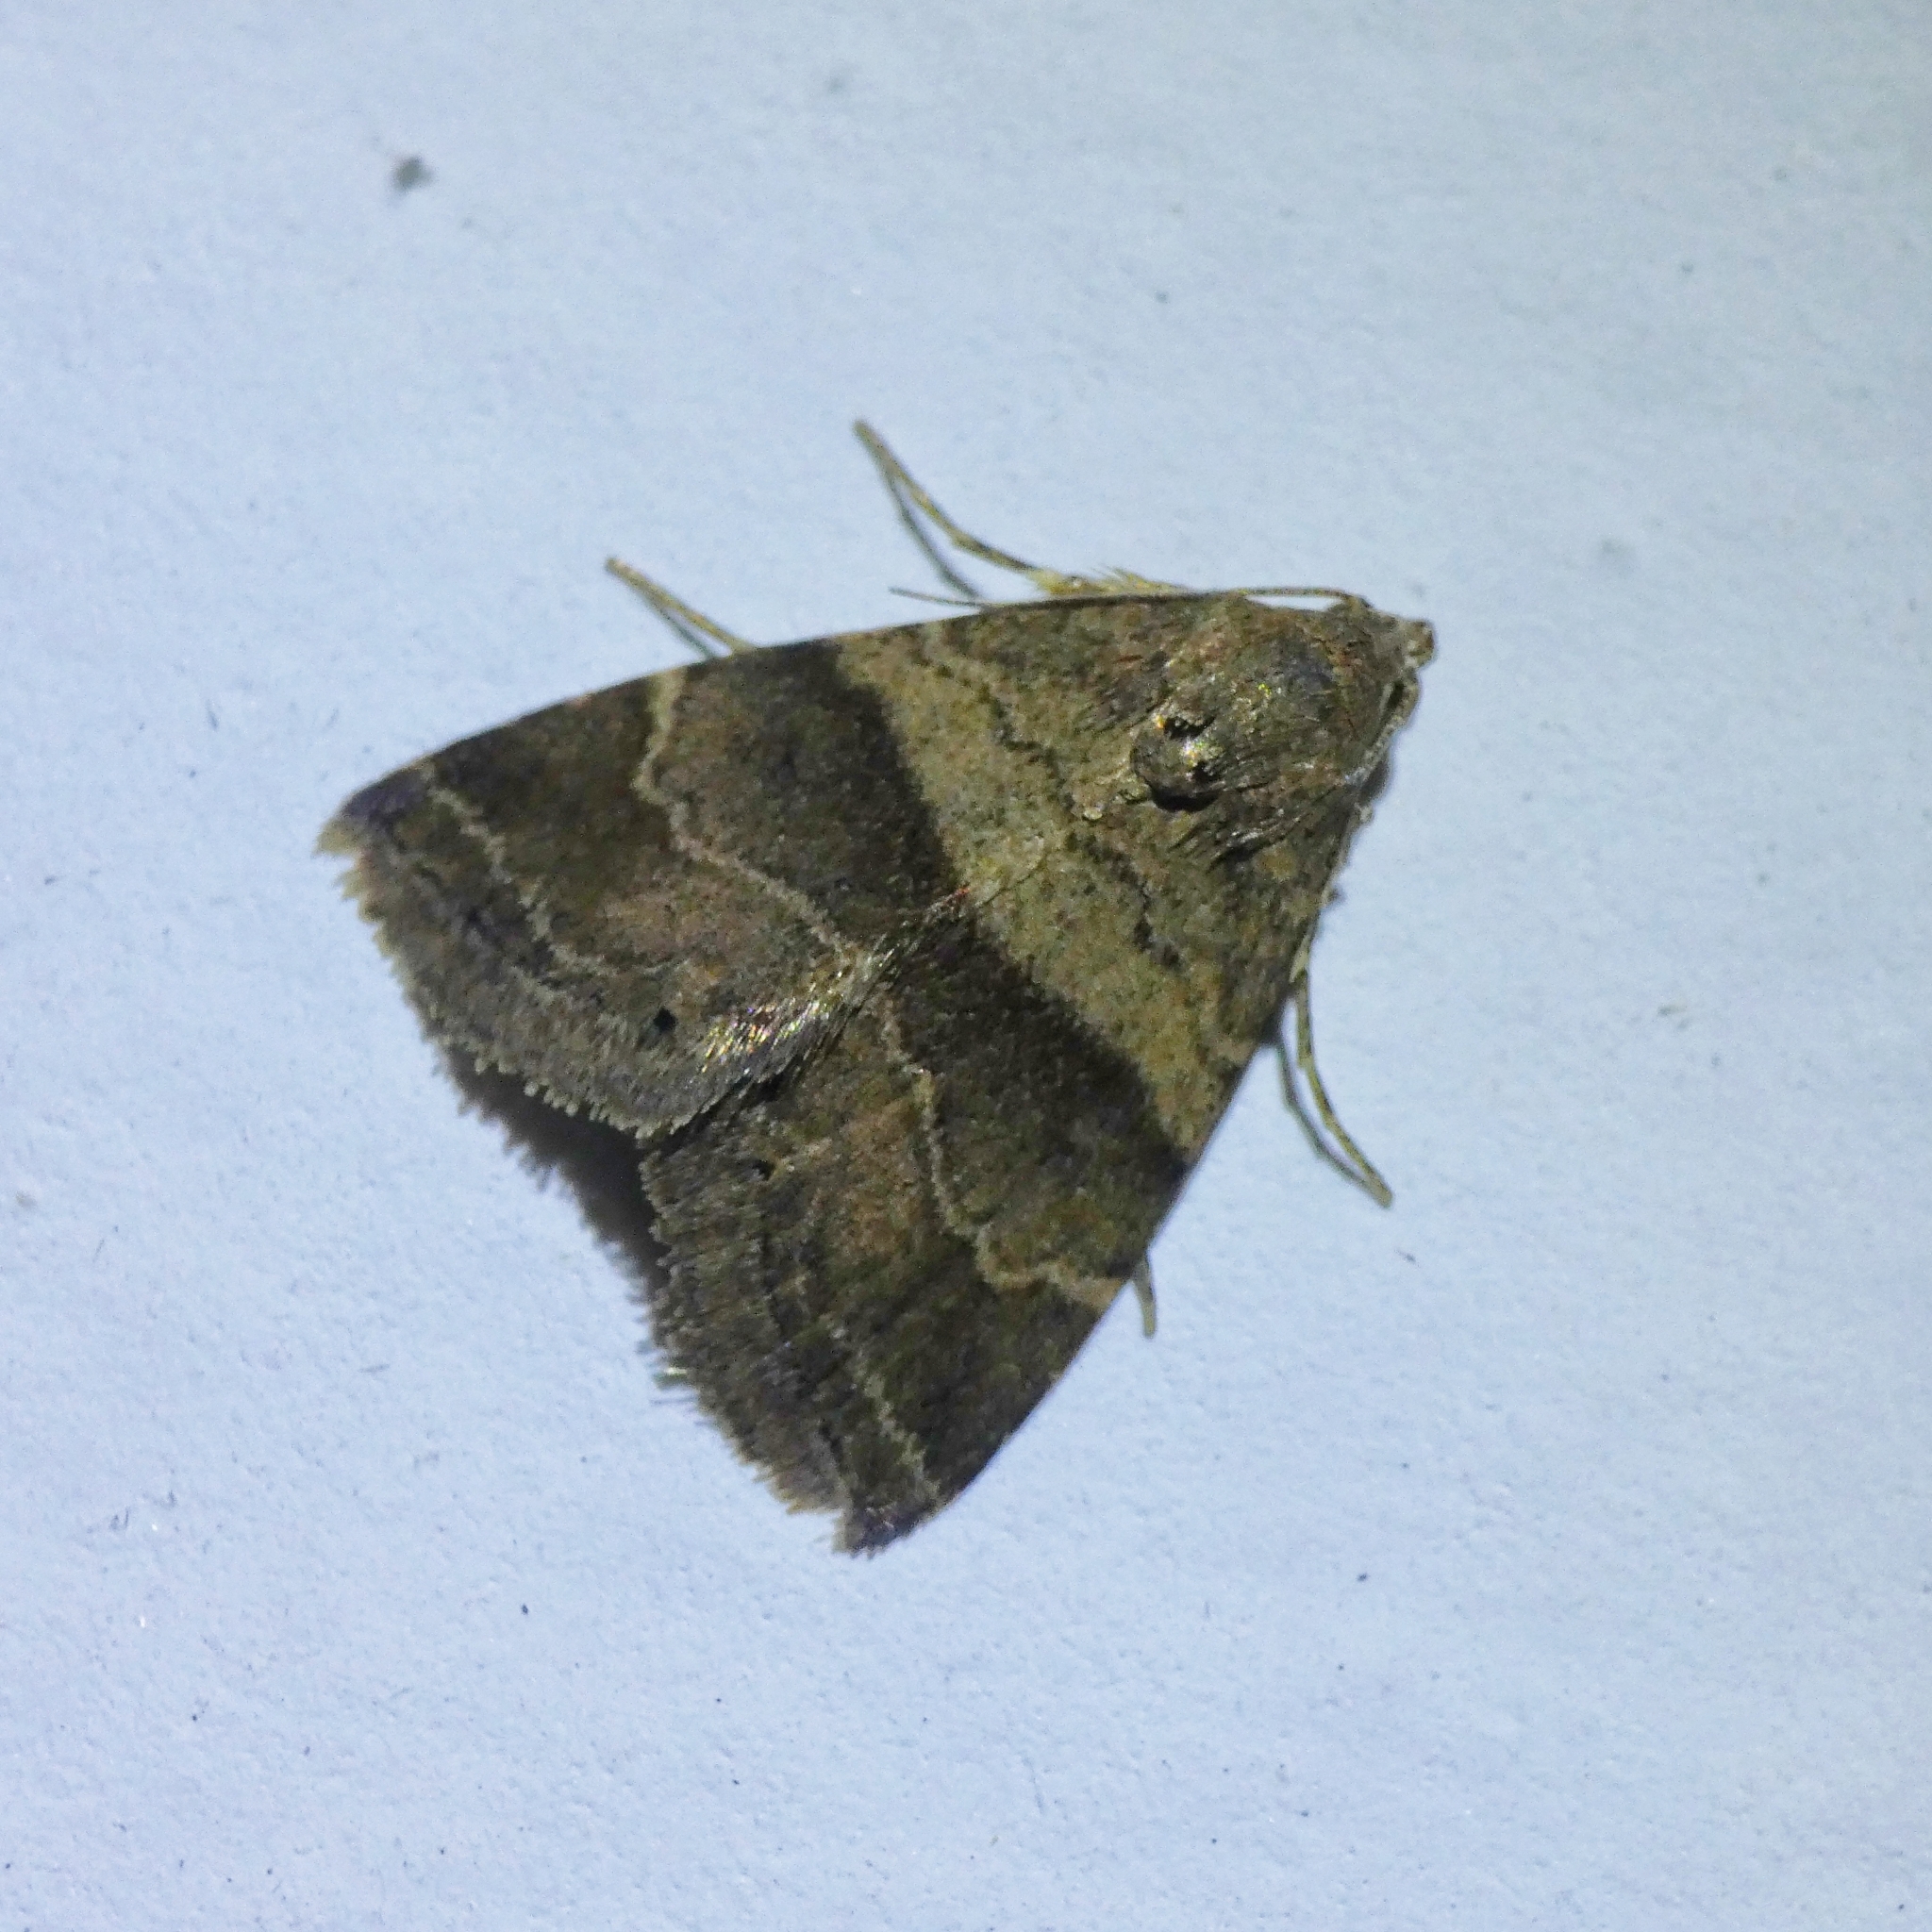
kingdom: Animalia
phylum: Arthropoda
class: Insecta
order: Lepidoptera
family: Noctuidae
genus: Ozarba
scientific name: Ozarba isocampta
